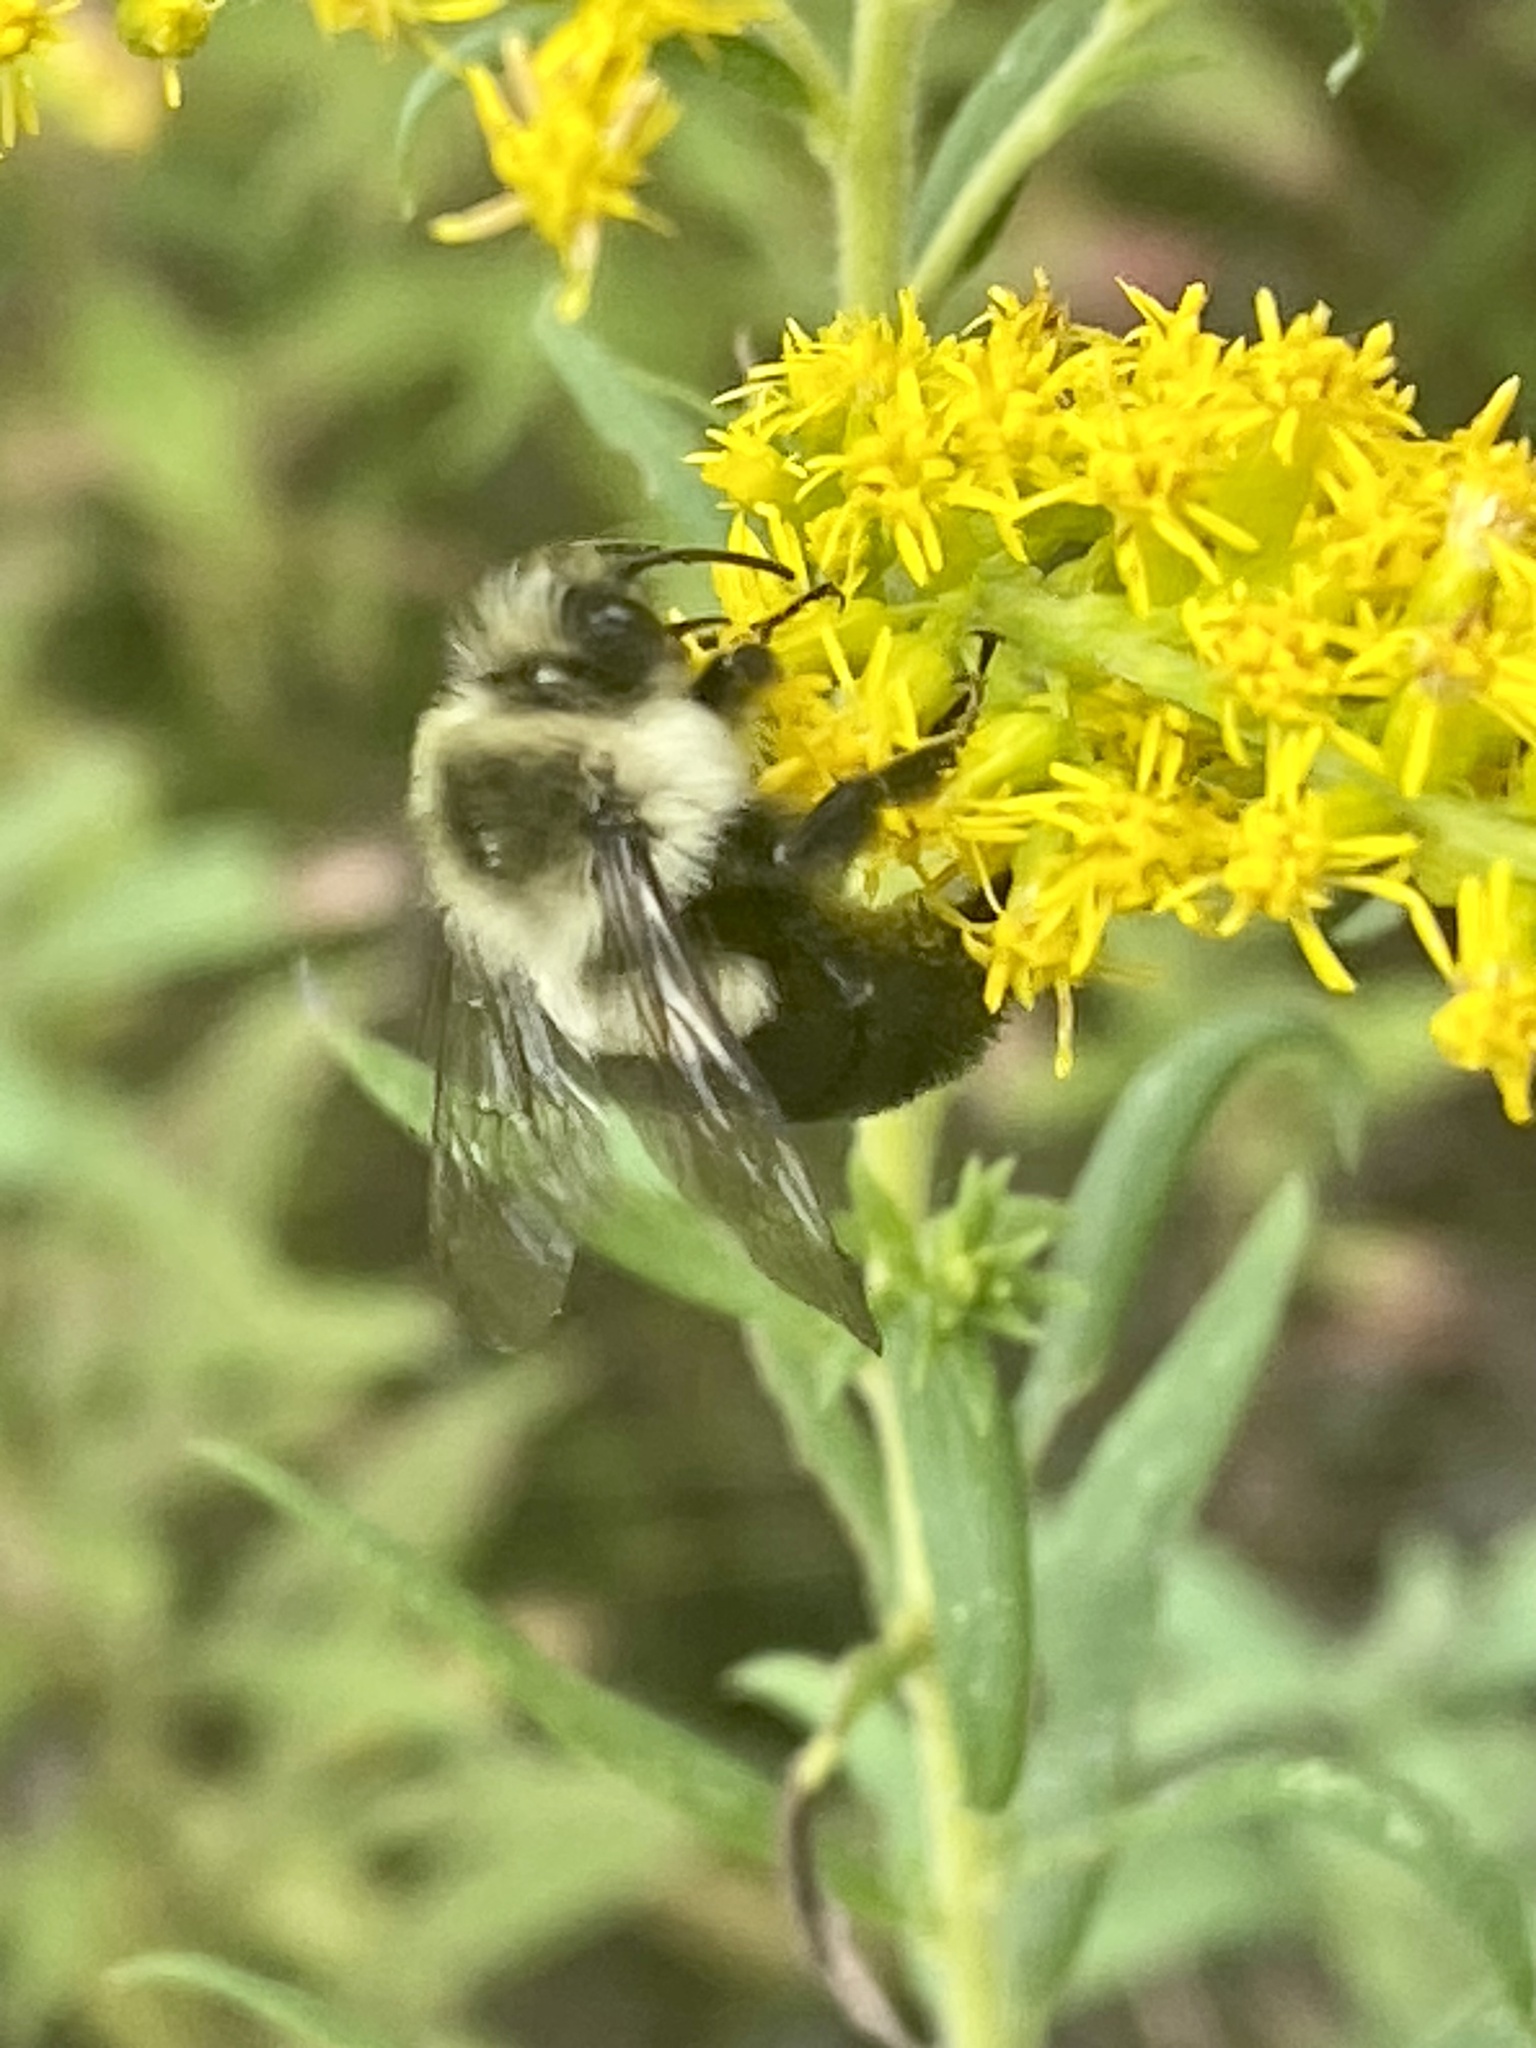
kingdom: Animalia
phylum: Arthropoda
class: Insecta
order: Hymenoptera
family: Apidae
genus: Bombus
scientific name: Bombus impatiens
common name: Common eastern bumble bee
